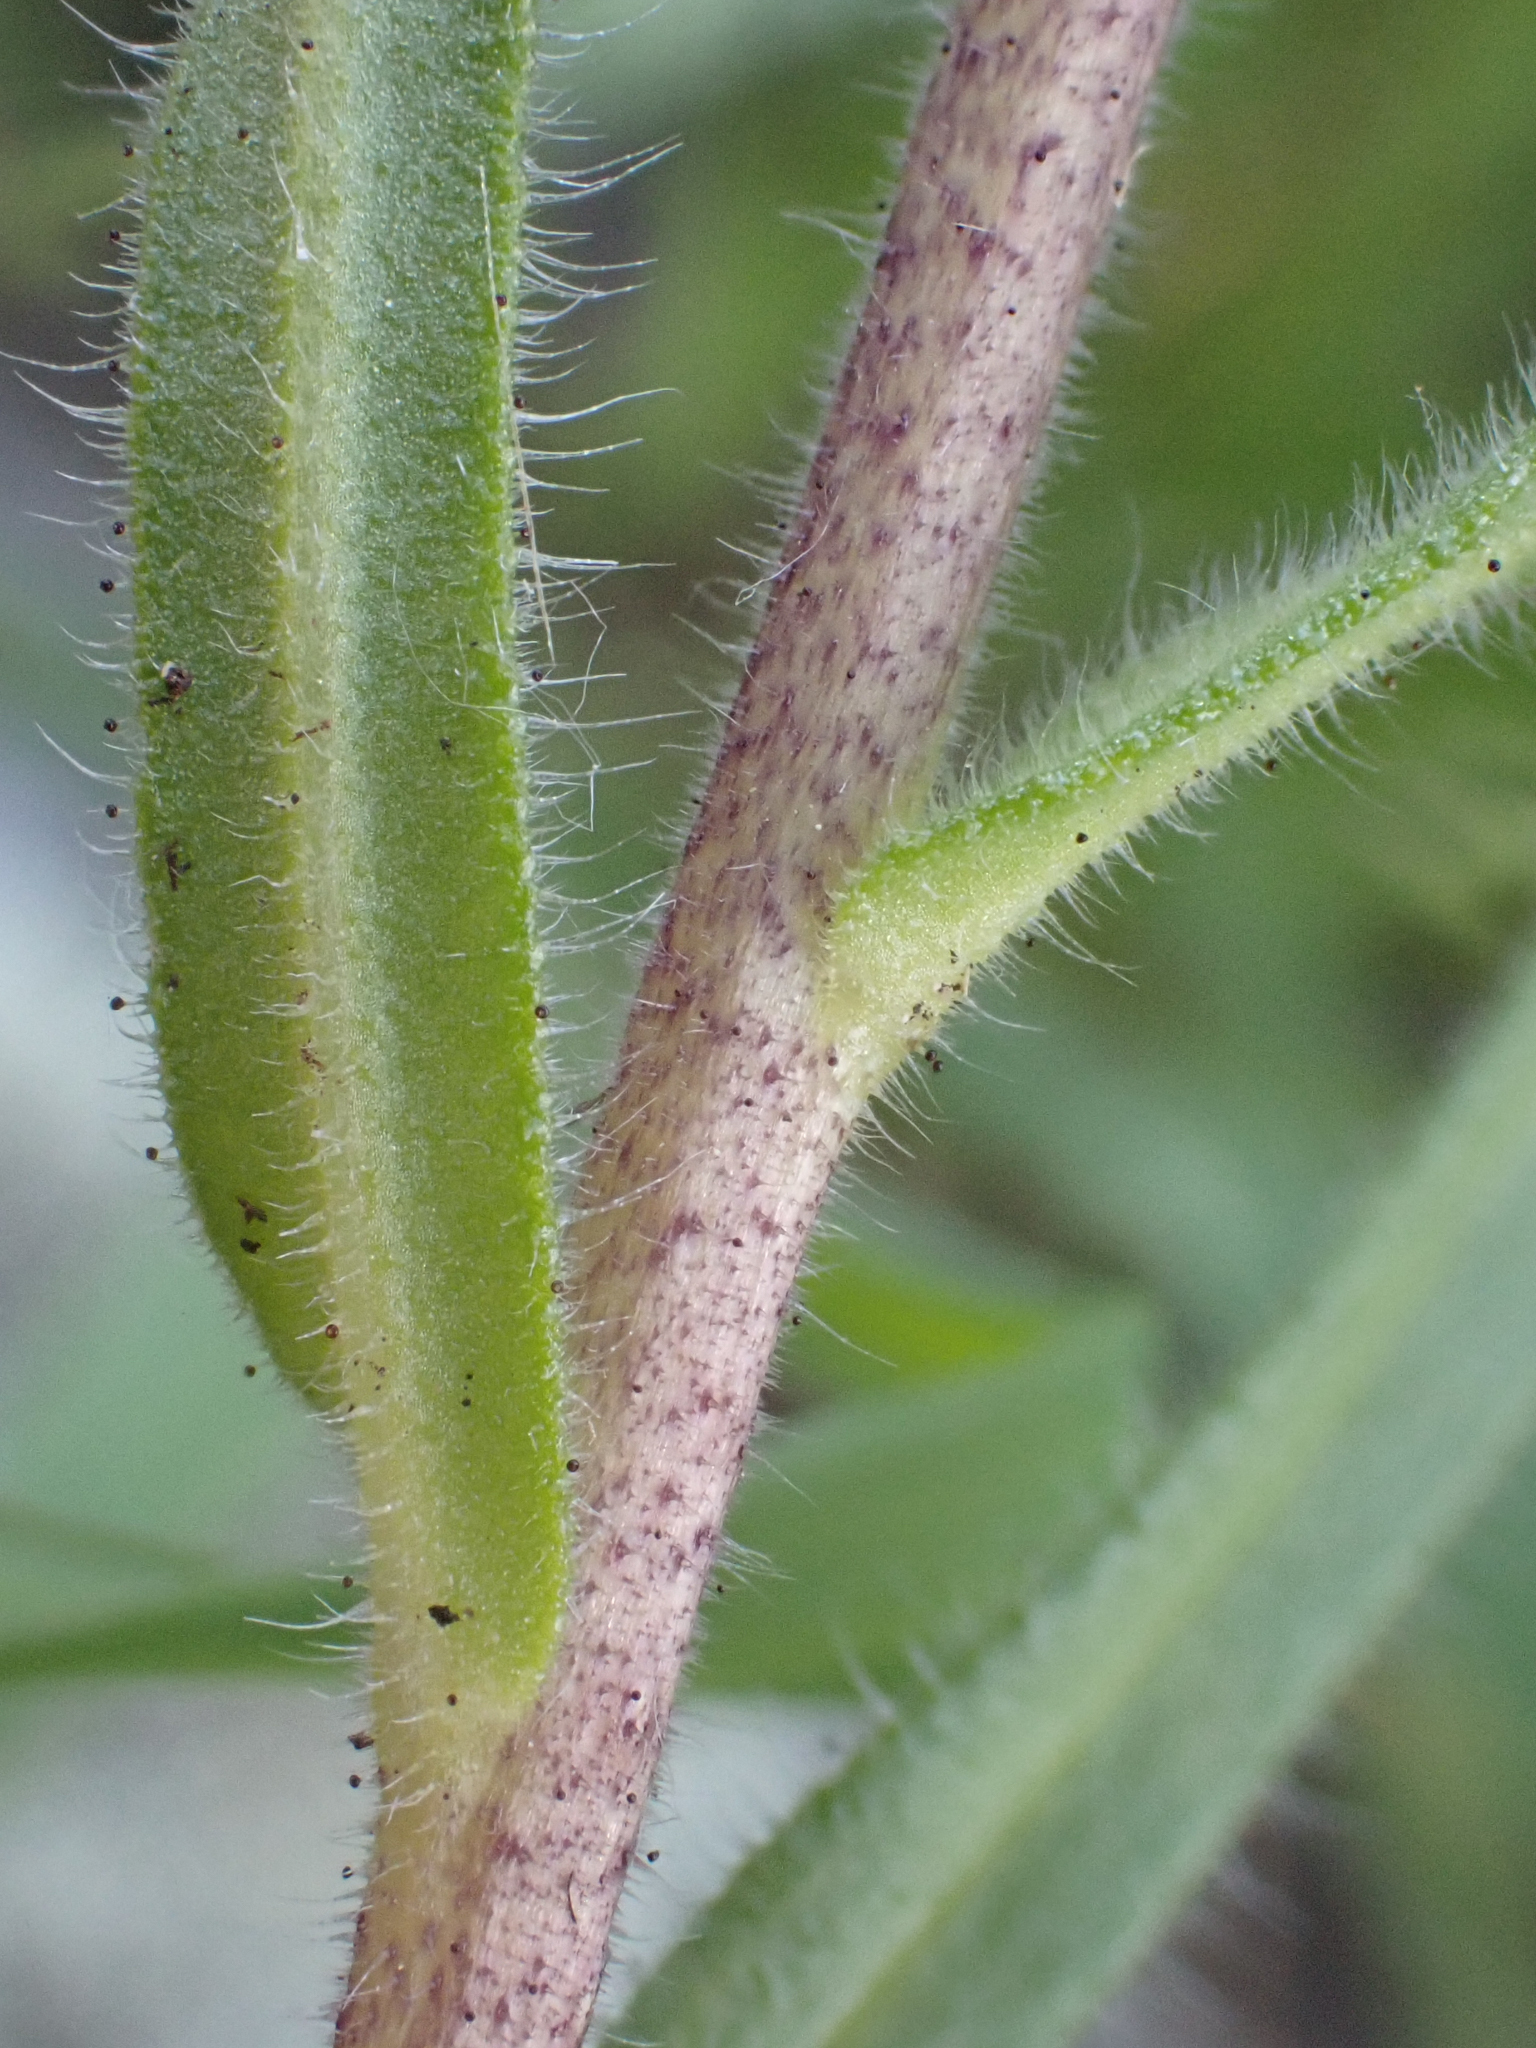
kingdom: Plantae
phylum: Tracheophyta
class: Magnoliopsida
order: Asterales
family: Asteraceae
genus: Layia
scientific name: Layia platyglossa
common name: Tidy-tips
